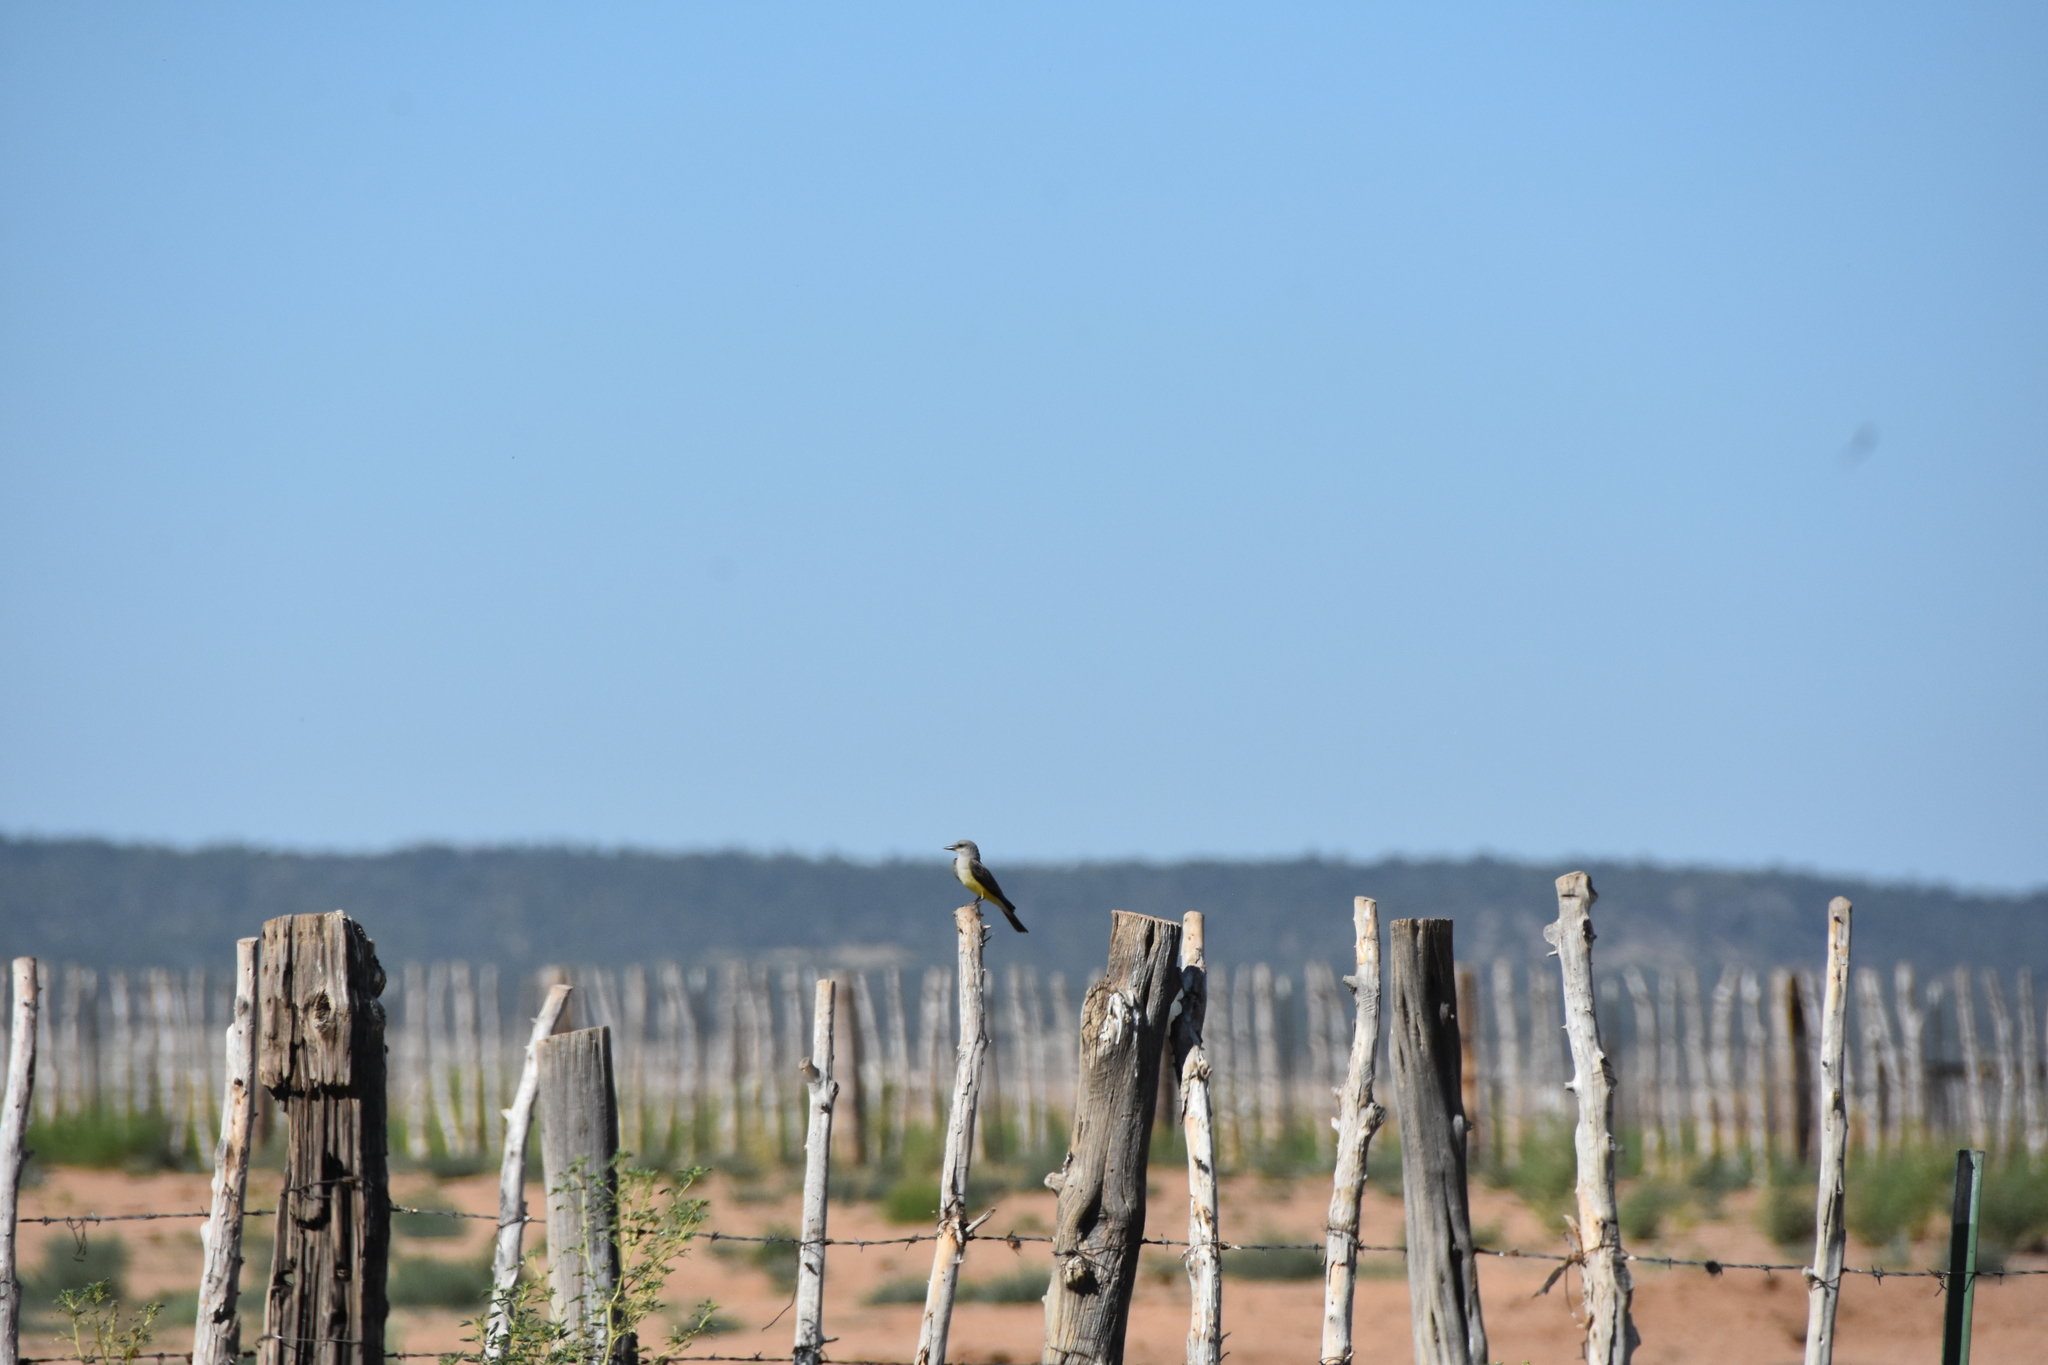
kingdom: Animalia
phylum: Chordata
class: Aves
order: Passeriformes
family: Tyrannidae
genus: Tyrannus
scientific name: Tyrannus verticalis
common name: Western kingbird
